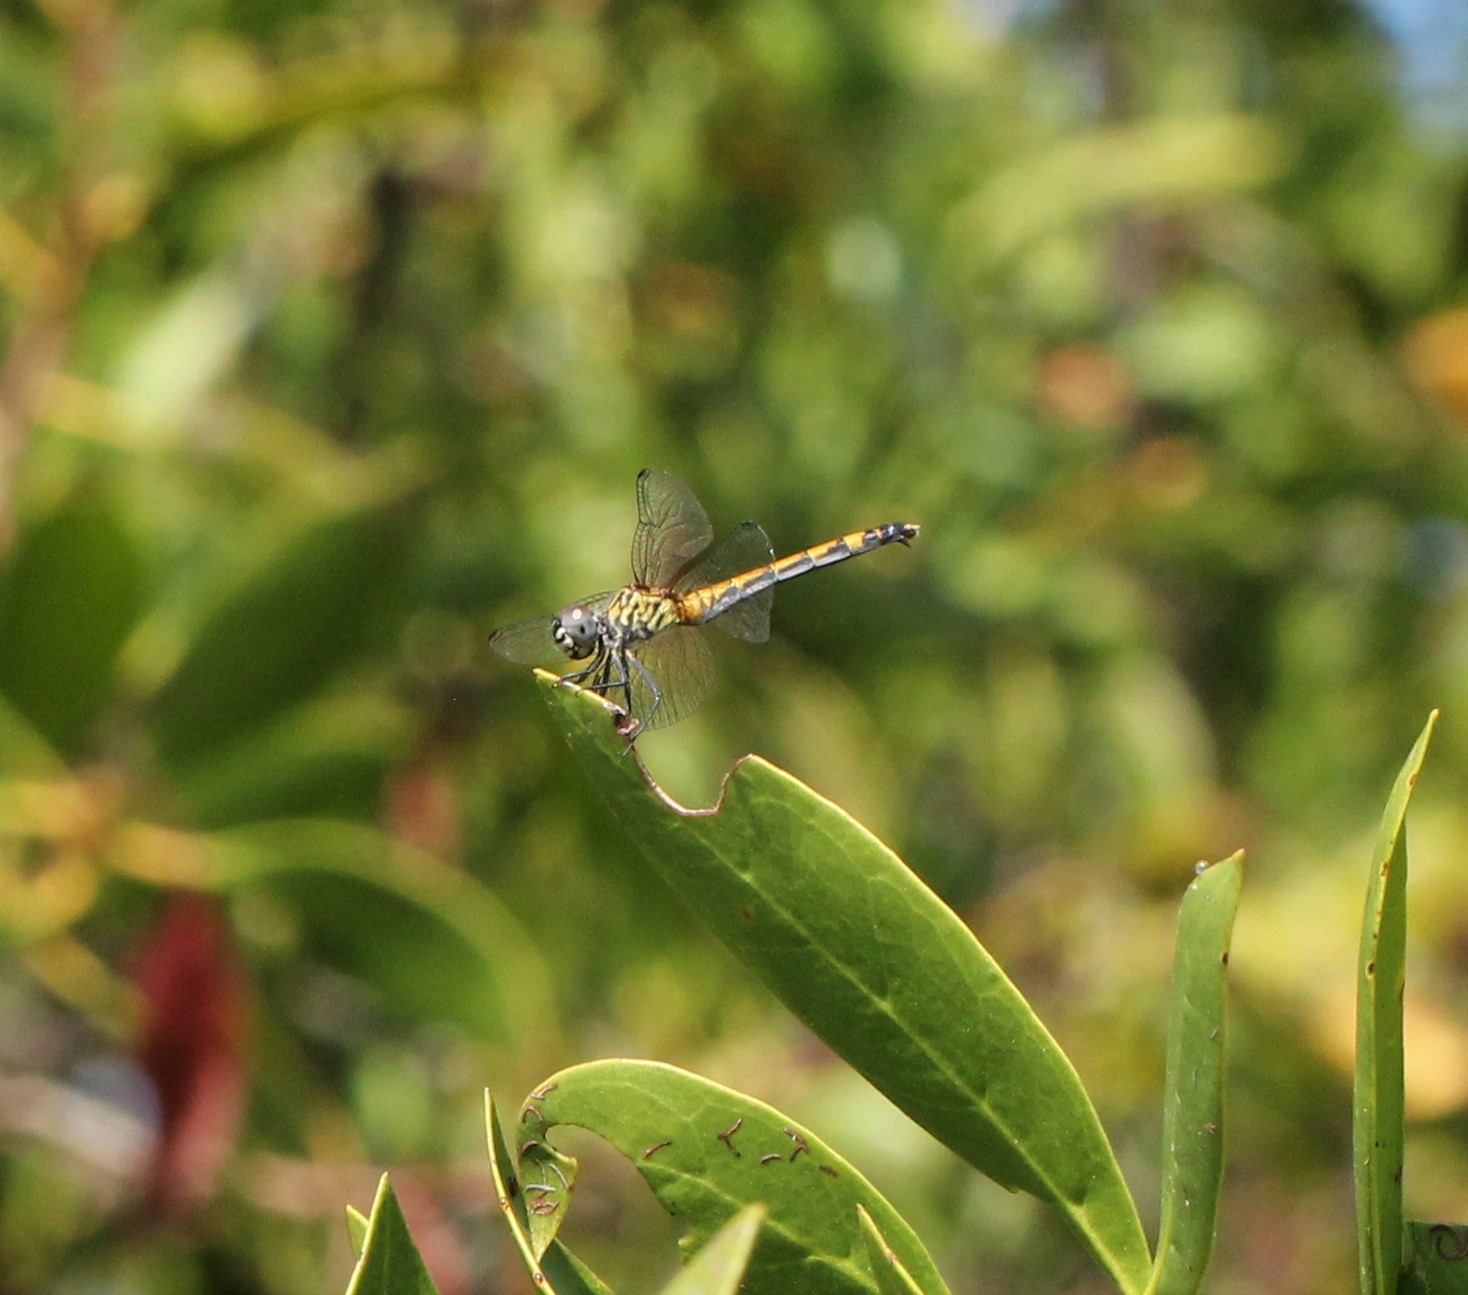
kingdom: Animalia
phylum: Arthropoda
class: Insecta
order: Odonata
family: Libellulidae
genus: Erythrodiplax
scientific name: Erythrodiplax berenice
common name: Seaside dragonlet
